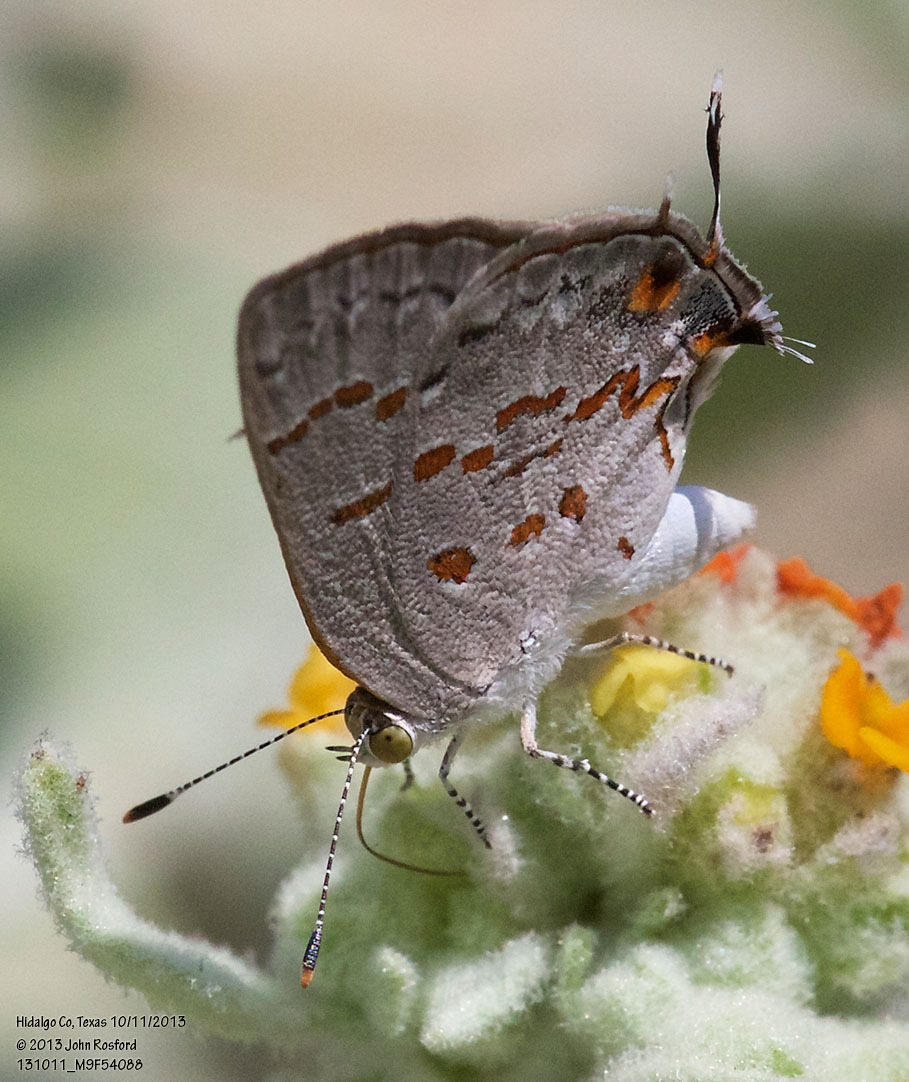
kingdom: Animalia
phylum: Arthropoda
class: Insecta
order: Lepidoptera
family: Lycaenidae
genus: Ministrymon
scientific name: Ministrymon clytie
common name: Clytie ministreak
